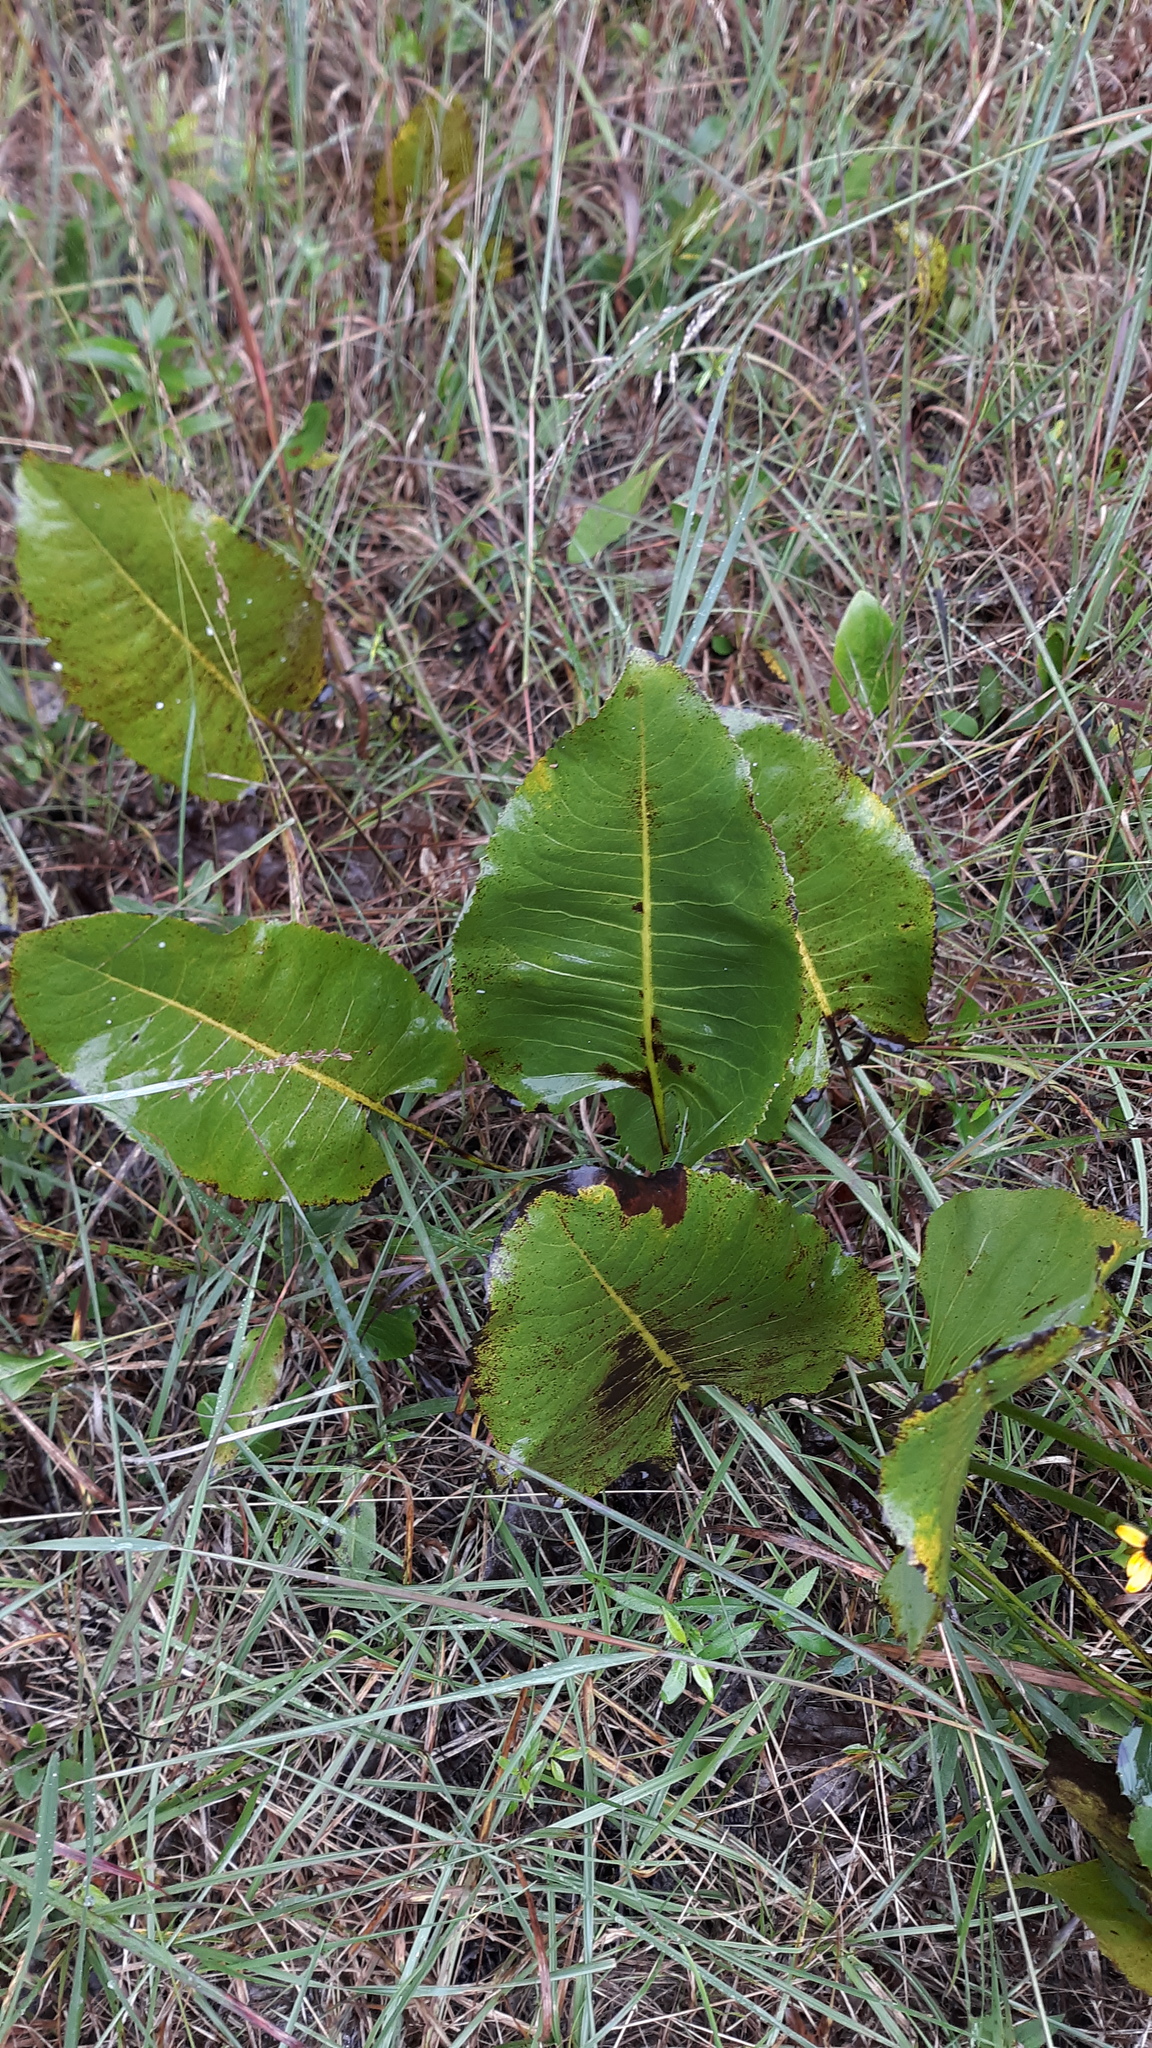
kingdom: Plantae
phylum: Tracheophyta
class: Magnoliopsida
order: Asterales
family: Asteraceae
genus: Silphium
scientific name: Silphium terebinthinaceum
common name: Basal-leaf rosinweed
